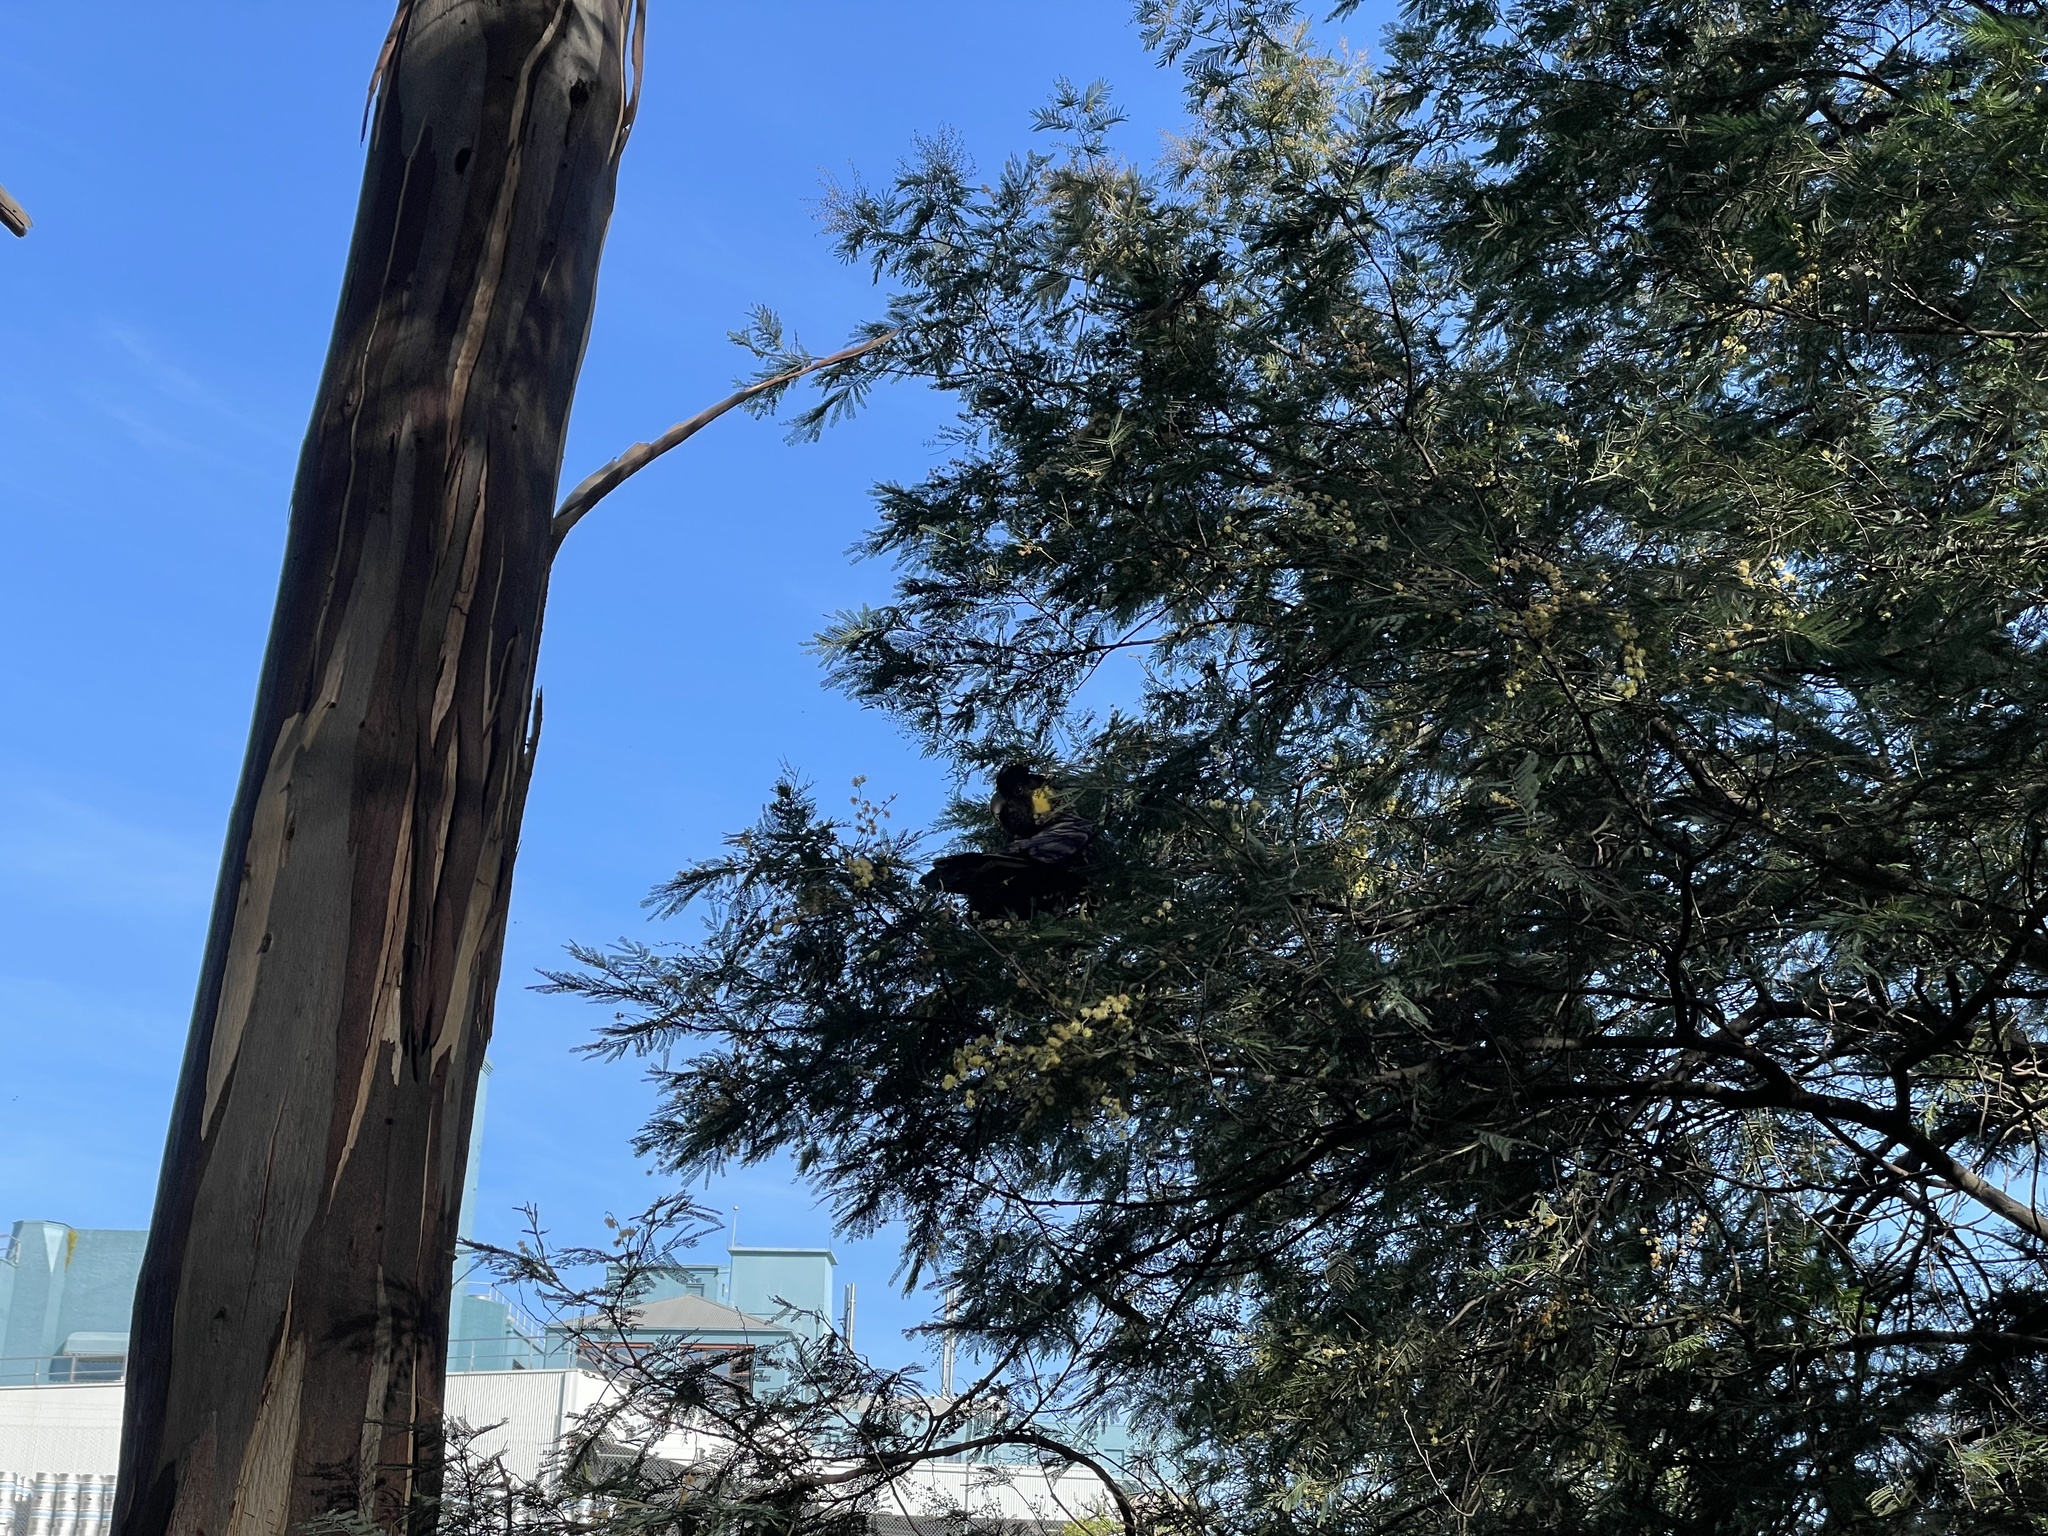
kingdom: Animalia
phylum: Chordata
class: Aves
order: Psittaciformes
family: Cacatuidae
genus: Zanda
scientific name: Zanda funerea
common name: Yellow-tailed black-cockatoo
